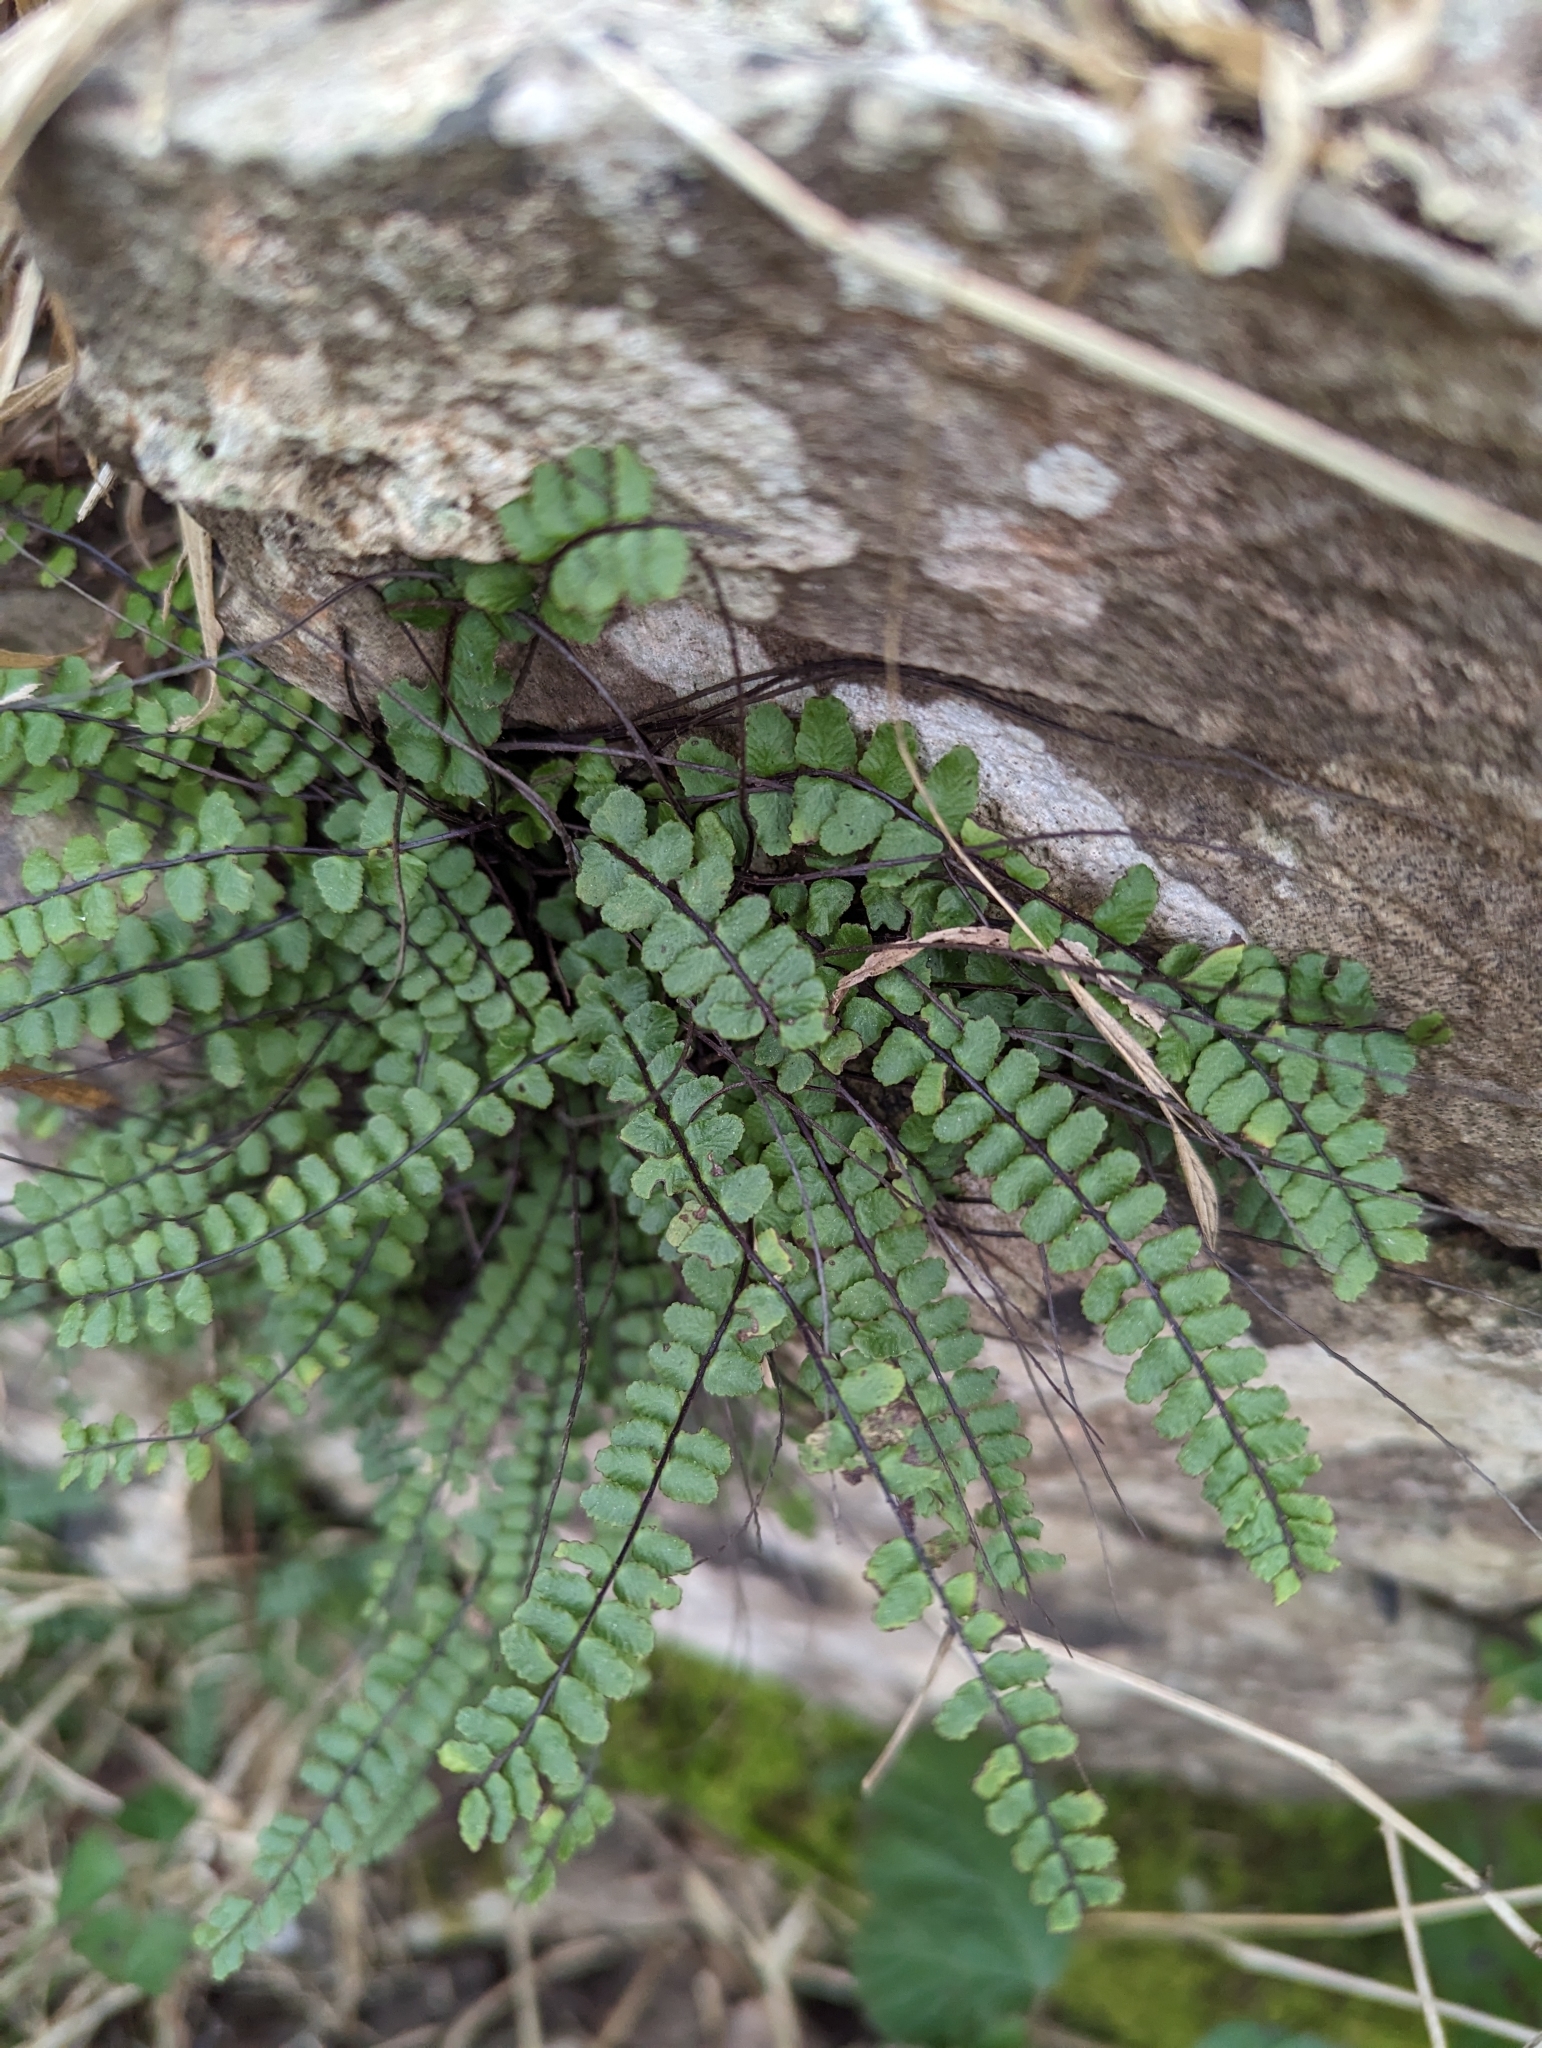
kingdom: Plantae
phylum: Tracheophyta
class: Polypodiopsida
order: Polypodiales
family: Aspleniaceae
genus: Asplenium
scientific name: Asplenium trichomanes
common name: Maidenhair spleenwort
